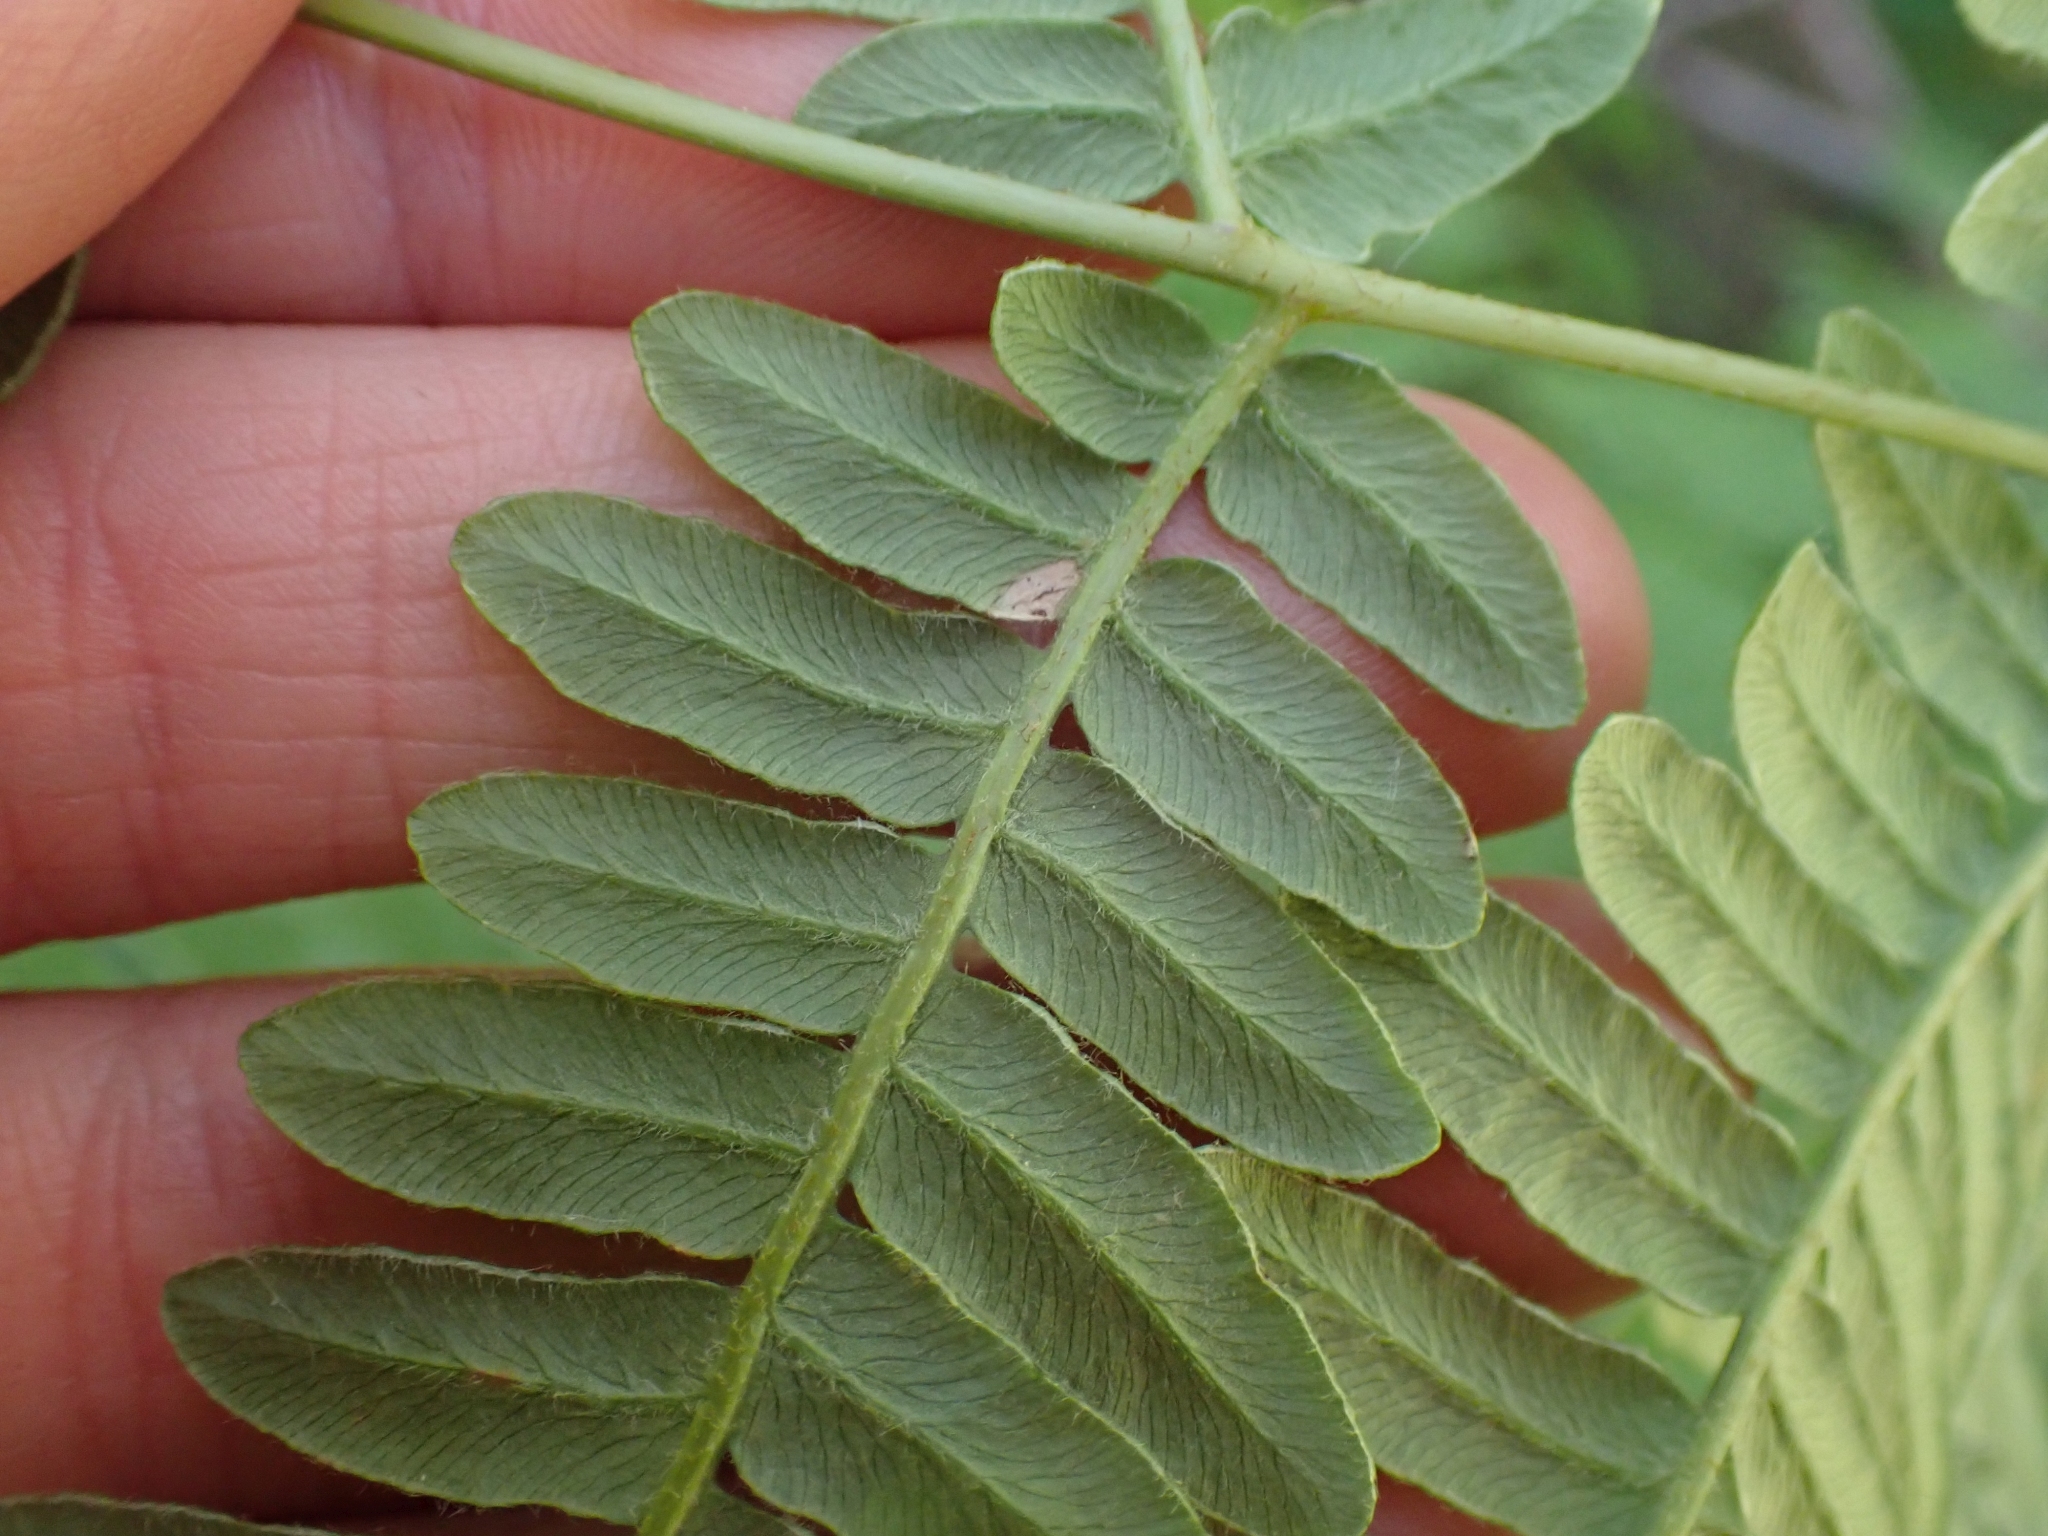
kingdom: Plantae
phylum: Tracheophyta
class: Polypodiopsida
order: Polypodiales
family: Dennstaedtiaceae
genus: Pteridium
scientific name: Pteridium aquilinum
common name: Bracken
